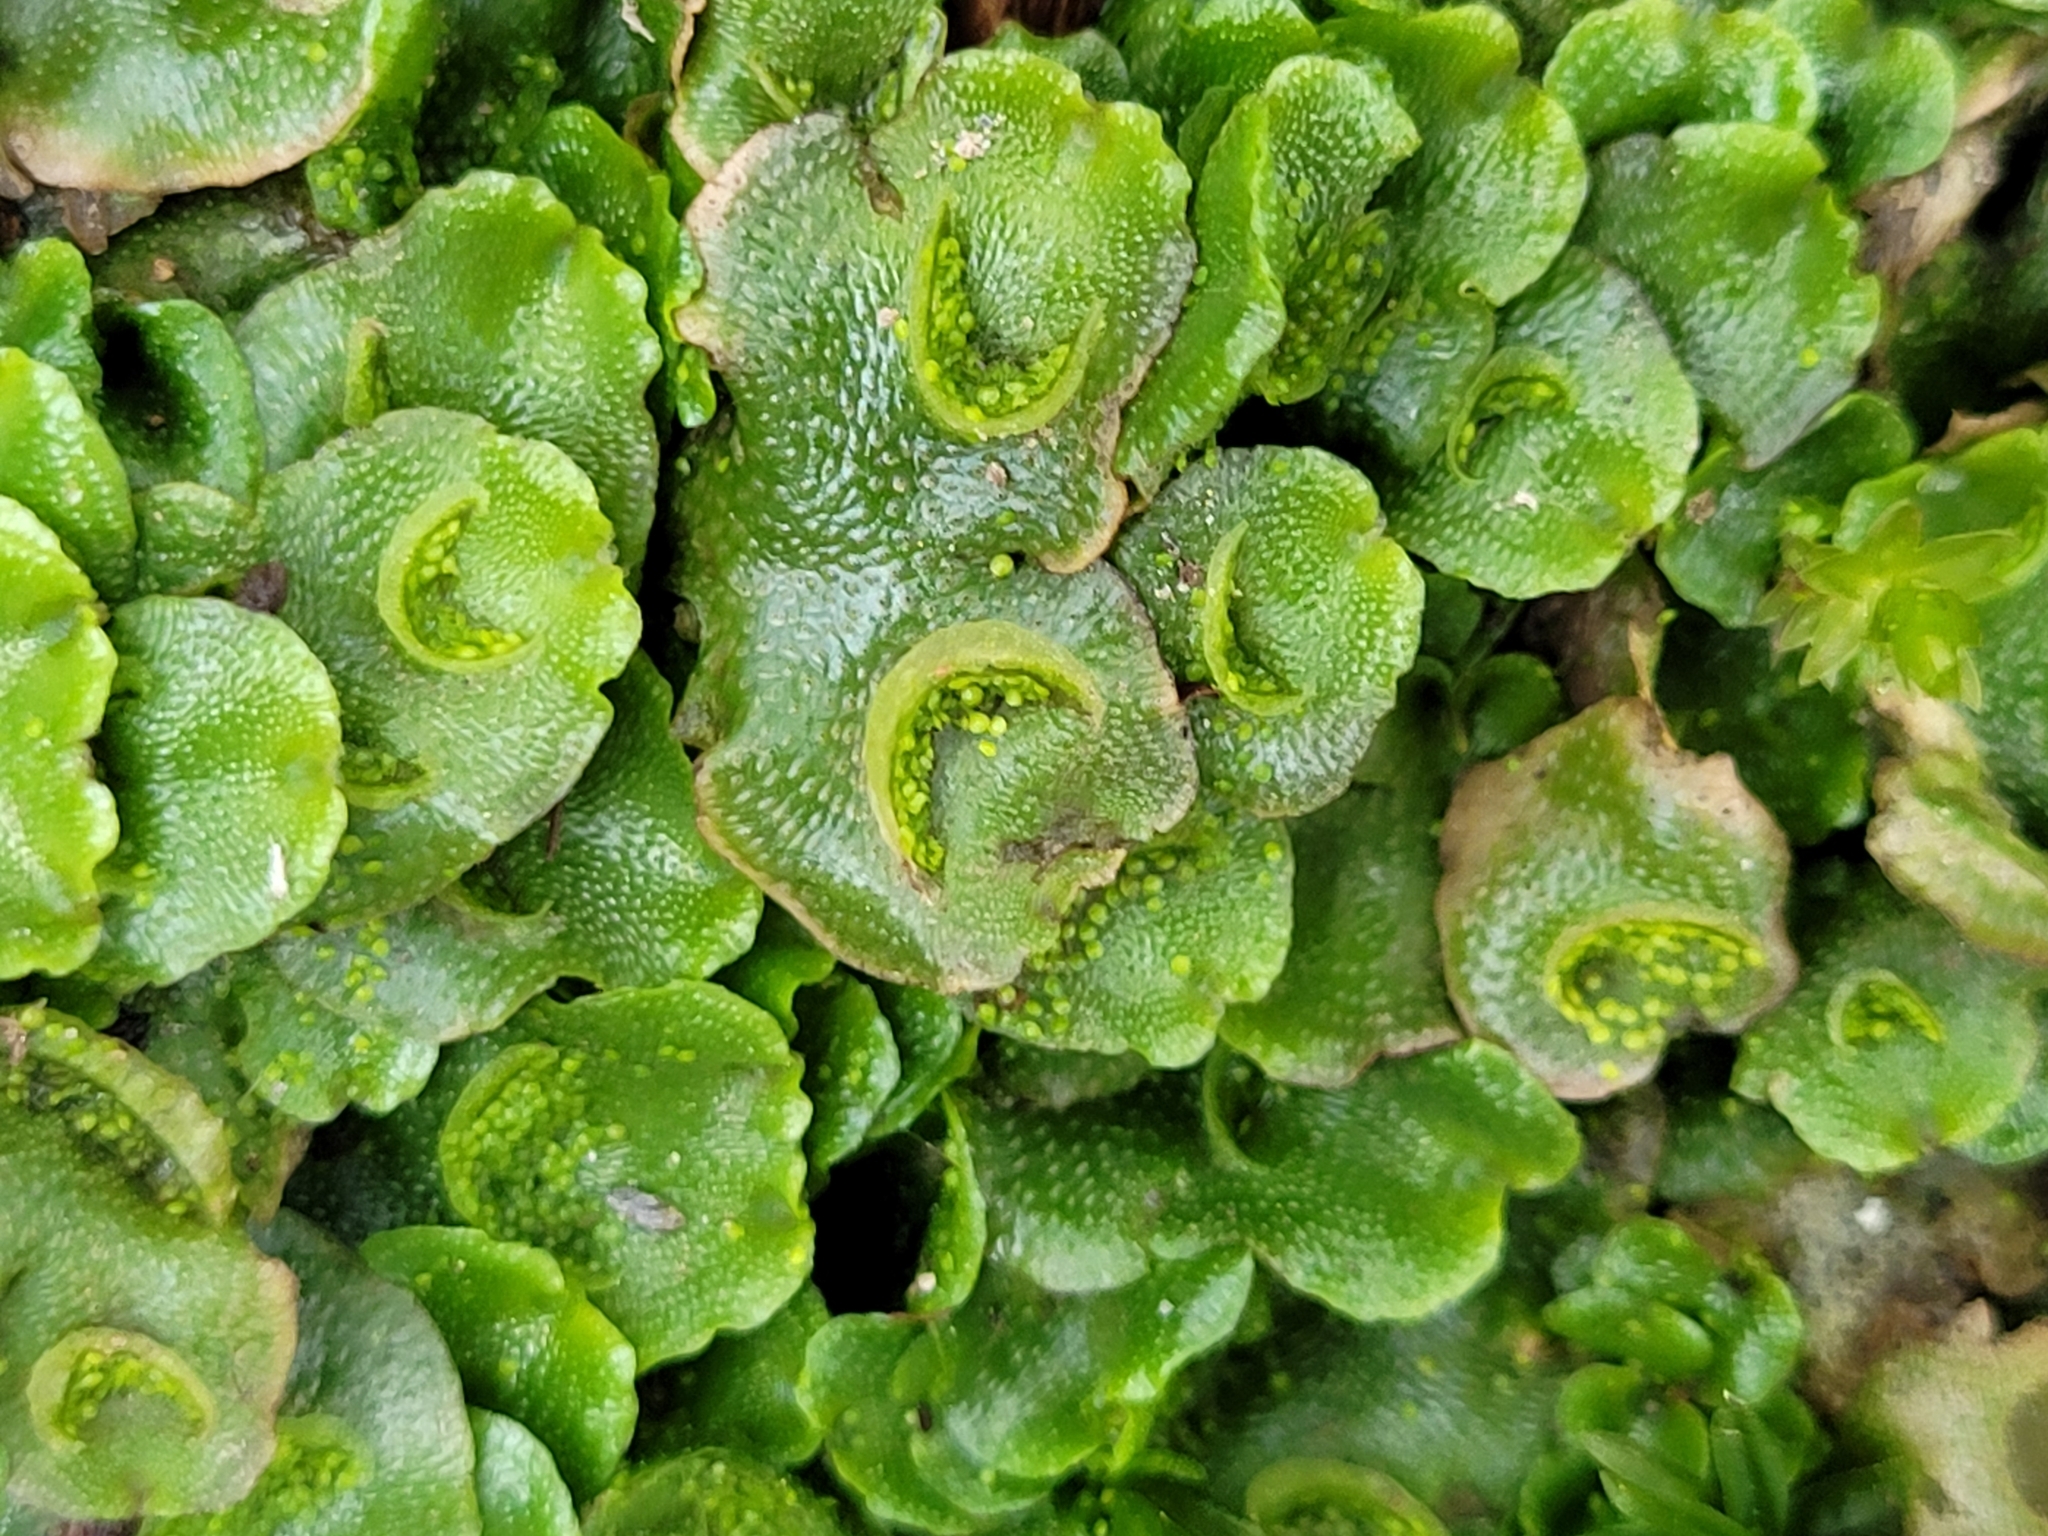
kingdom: Plantae
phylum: Marchantiophyta
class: Marchantiopsida
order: Lunulariales
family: Lunulariaceae
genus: Lunularia
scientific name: Lunularia cruciata
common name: Crescent-cup liverwort
